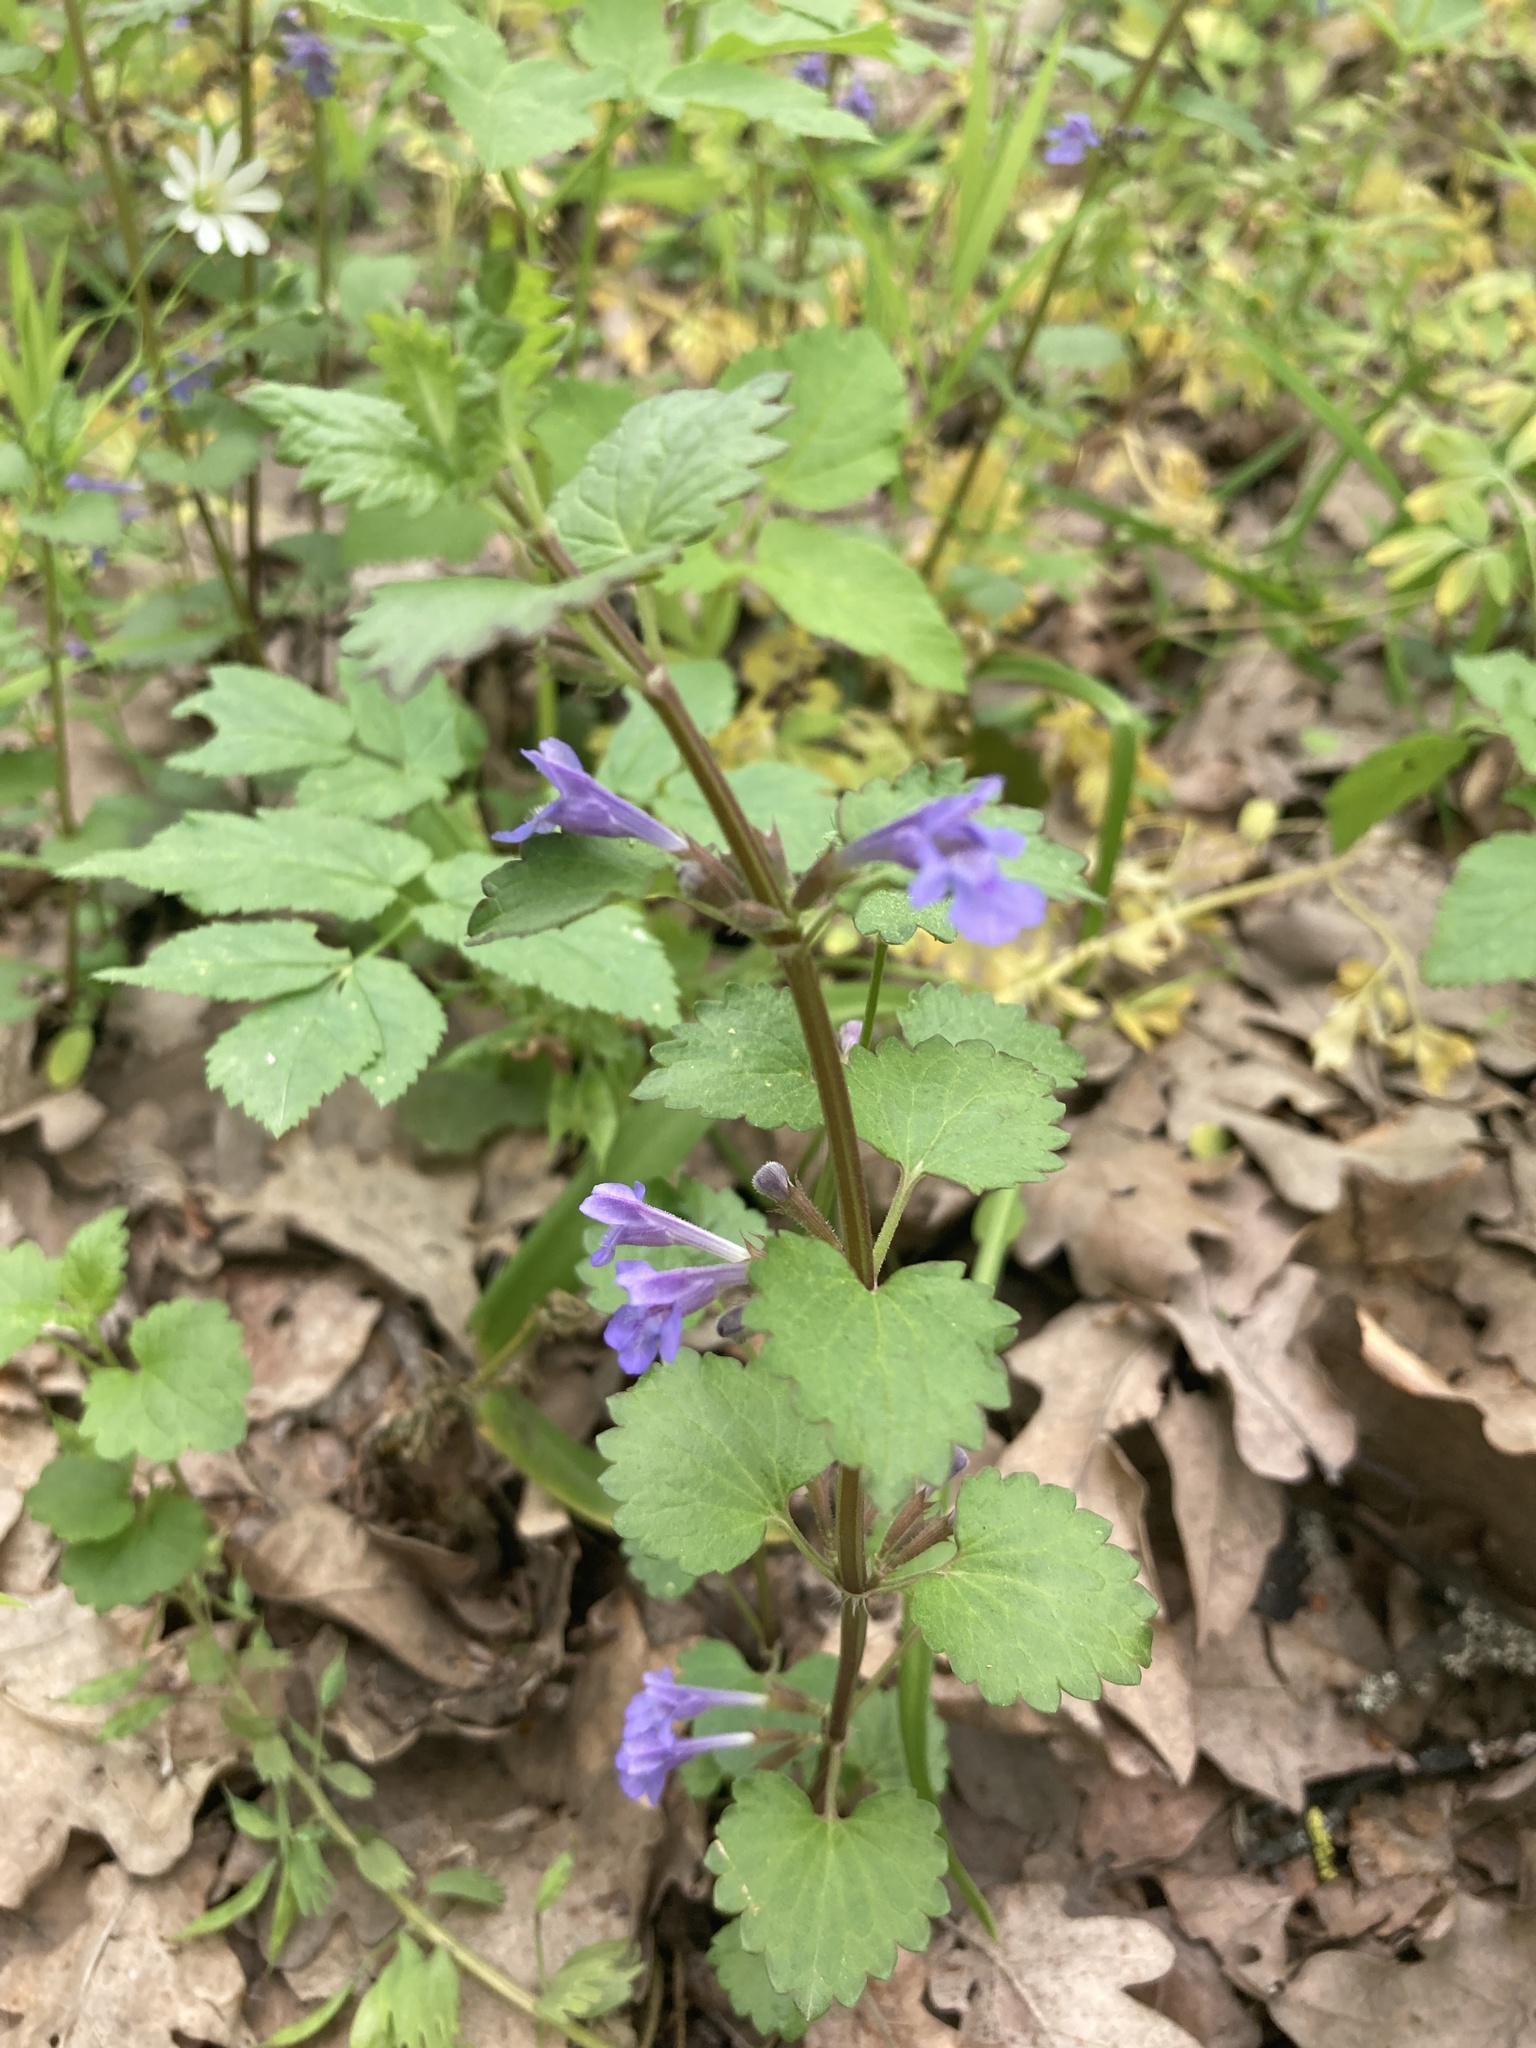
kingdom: Plantae
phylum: Tracheophyta
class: Magnoliopsida
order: Lamiales
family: Lamiaceae
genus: Glechoma
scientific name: Glechoma hederacea
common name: Ground ivy
